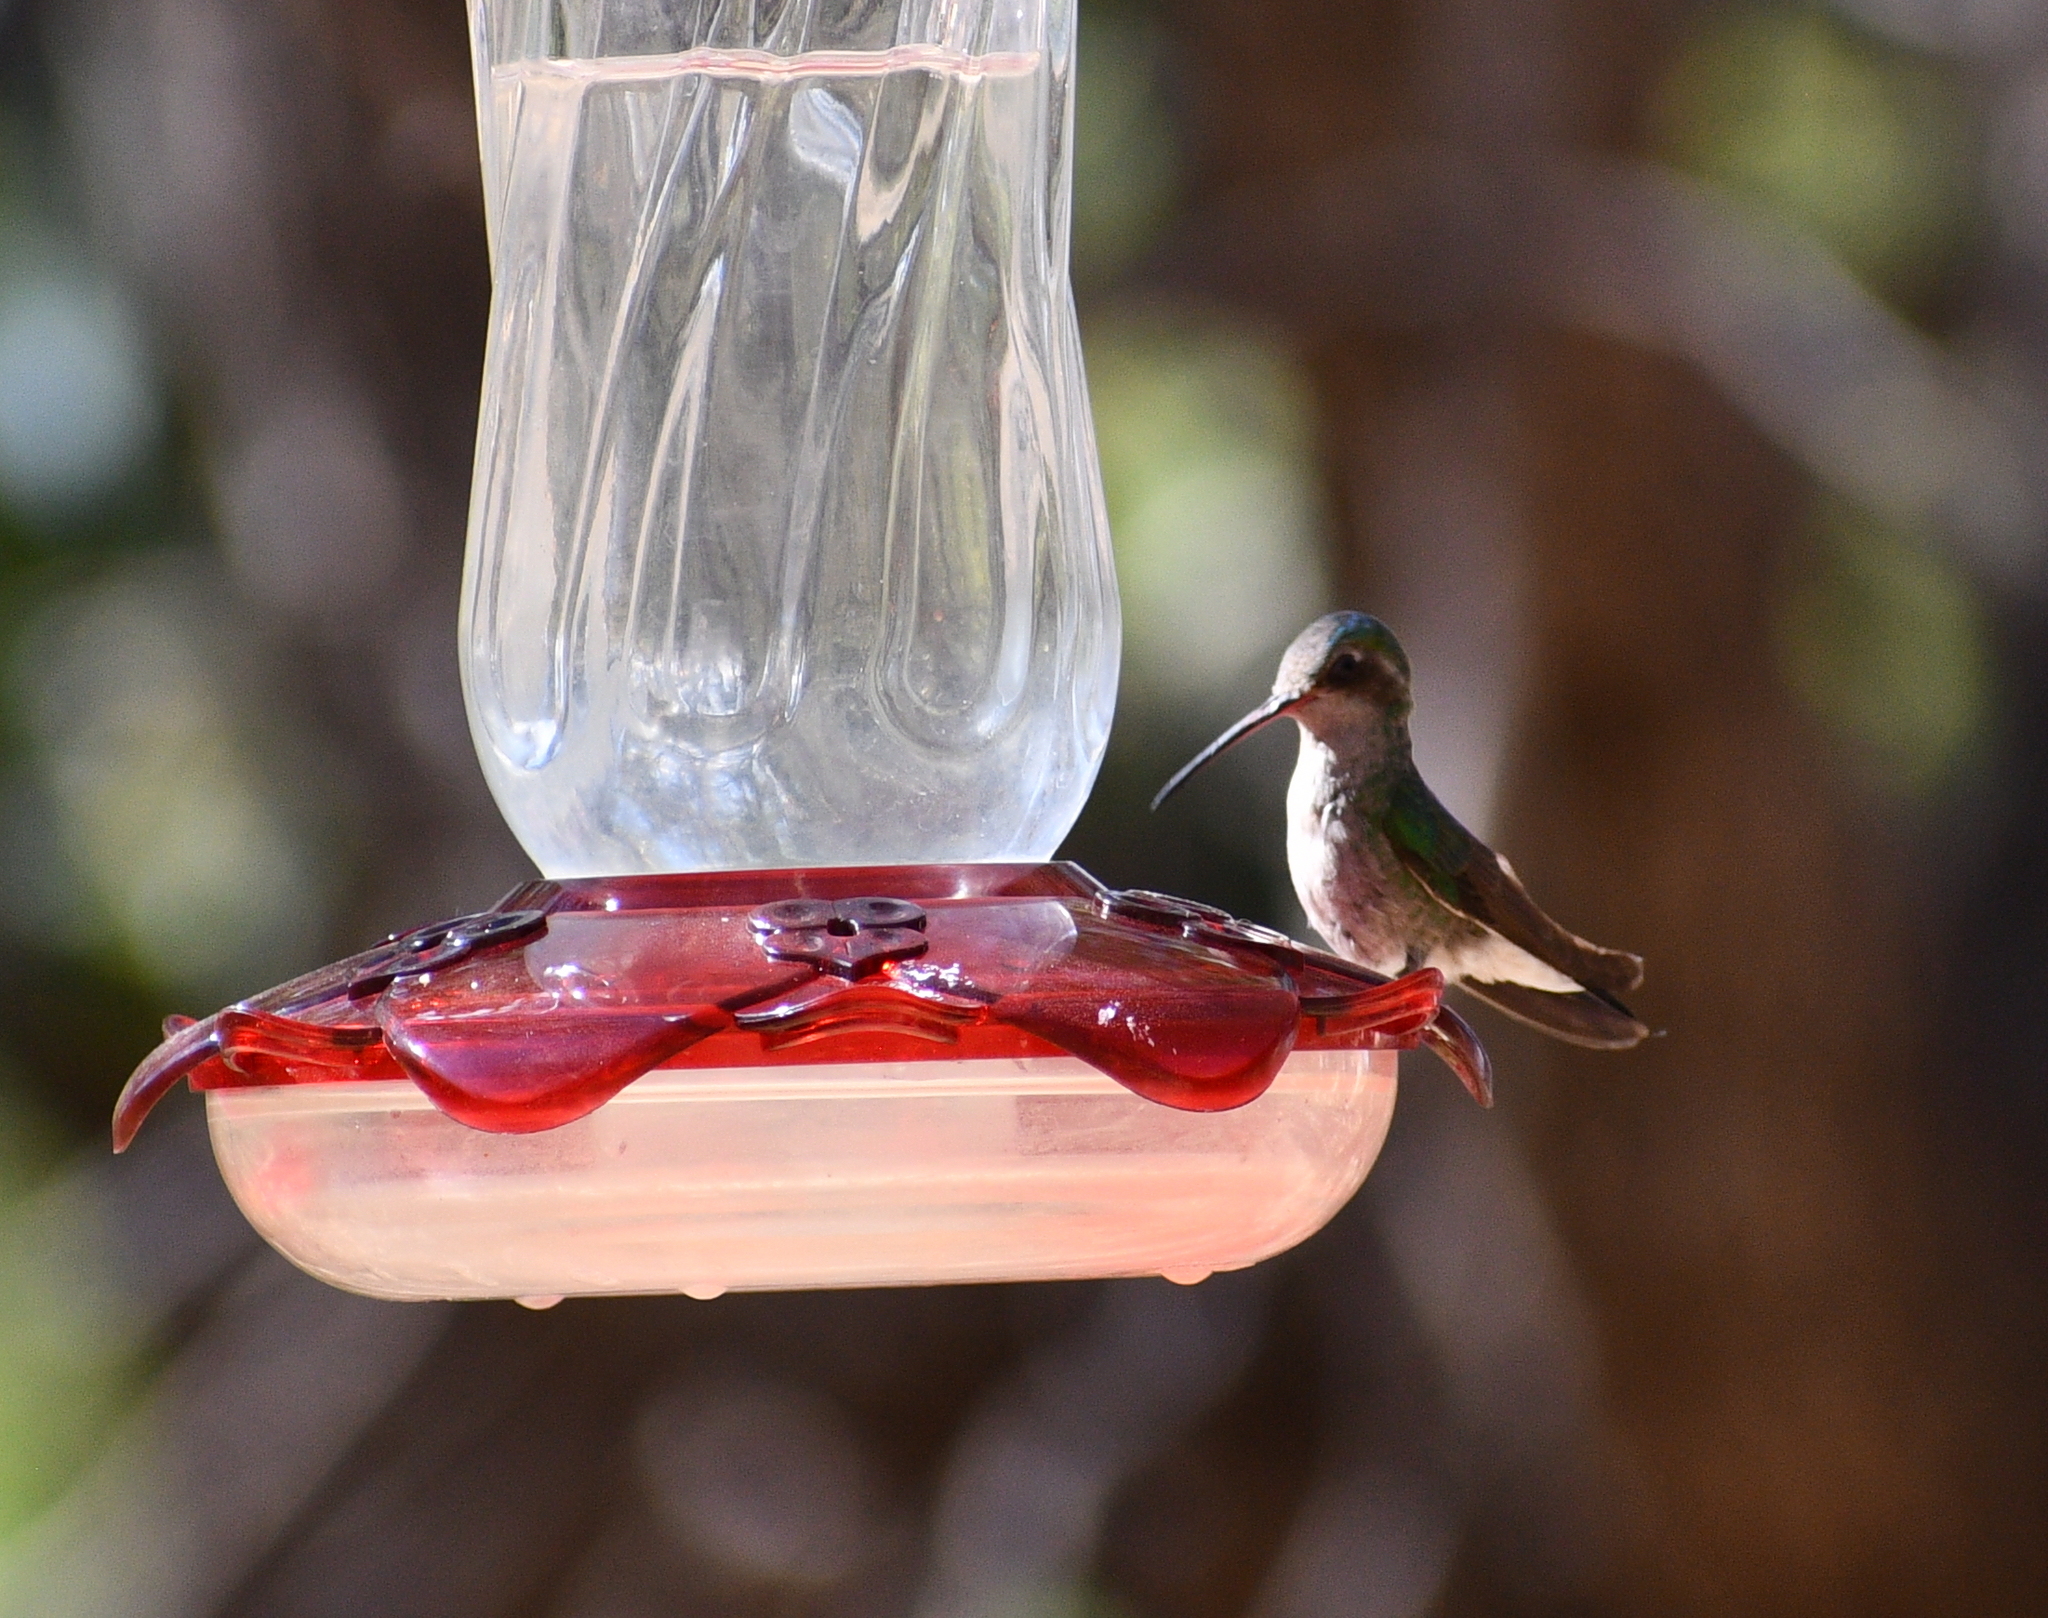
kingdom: Animalia
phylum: Chordata
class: Aves
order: Apodiformes
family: Trochilidae
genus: Cynanthus
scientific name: Cynanthus latirostris
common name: Broad-billed hummingbird
